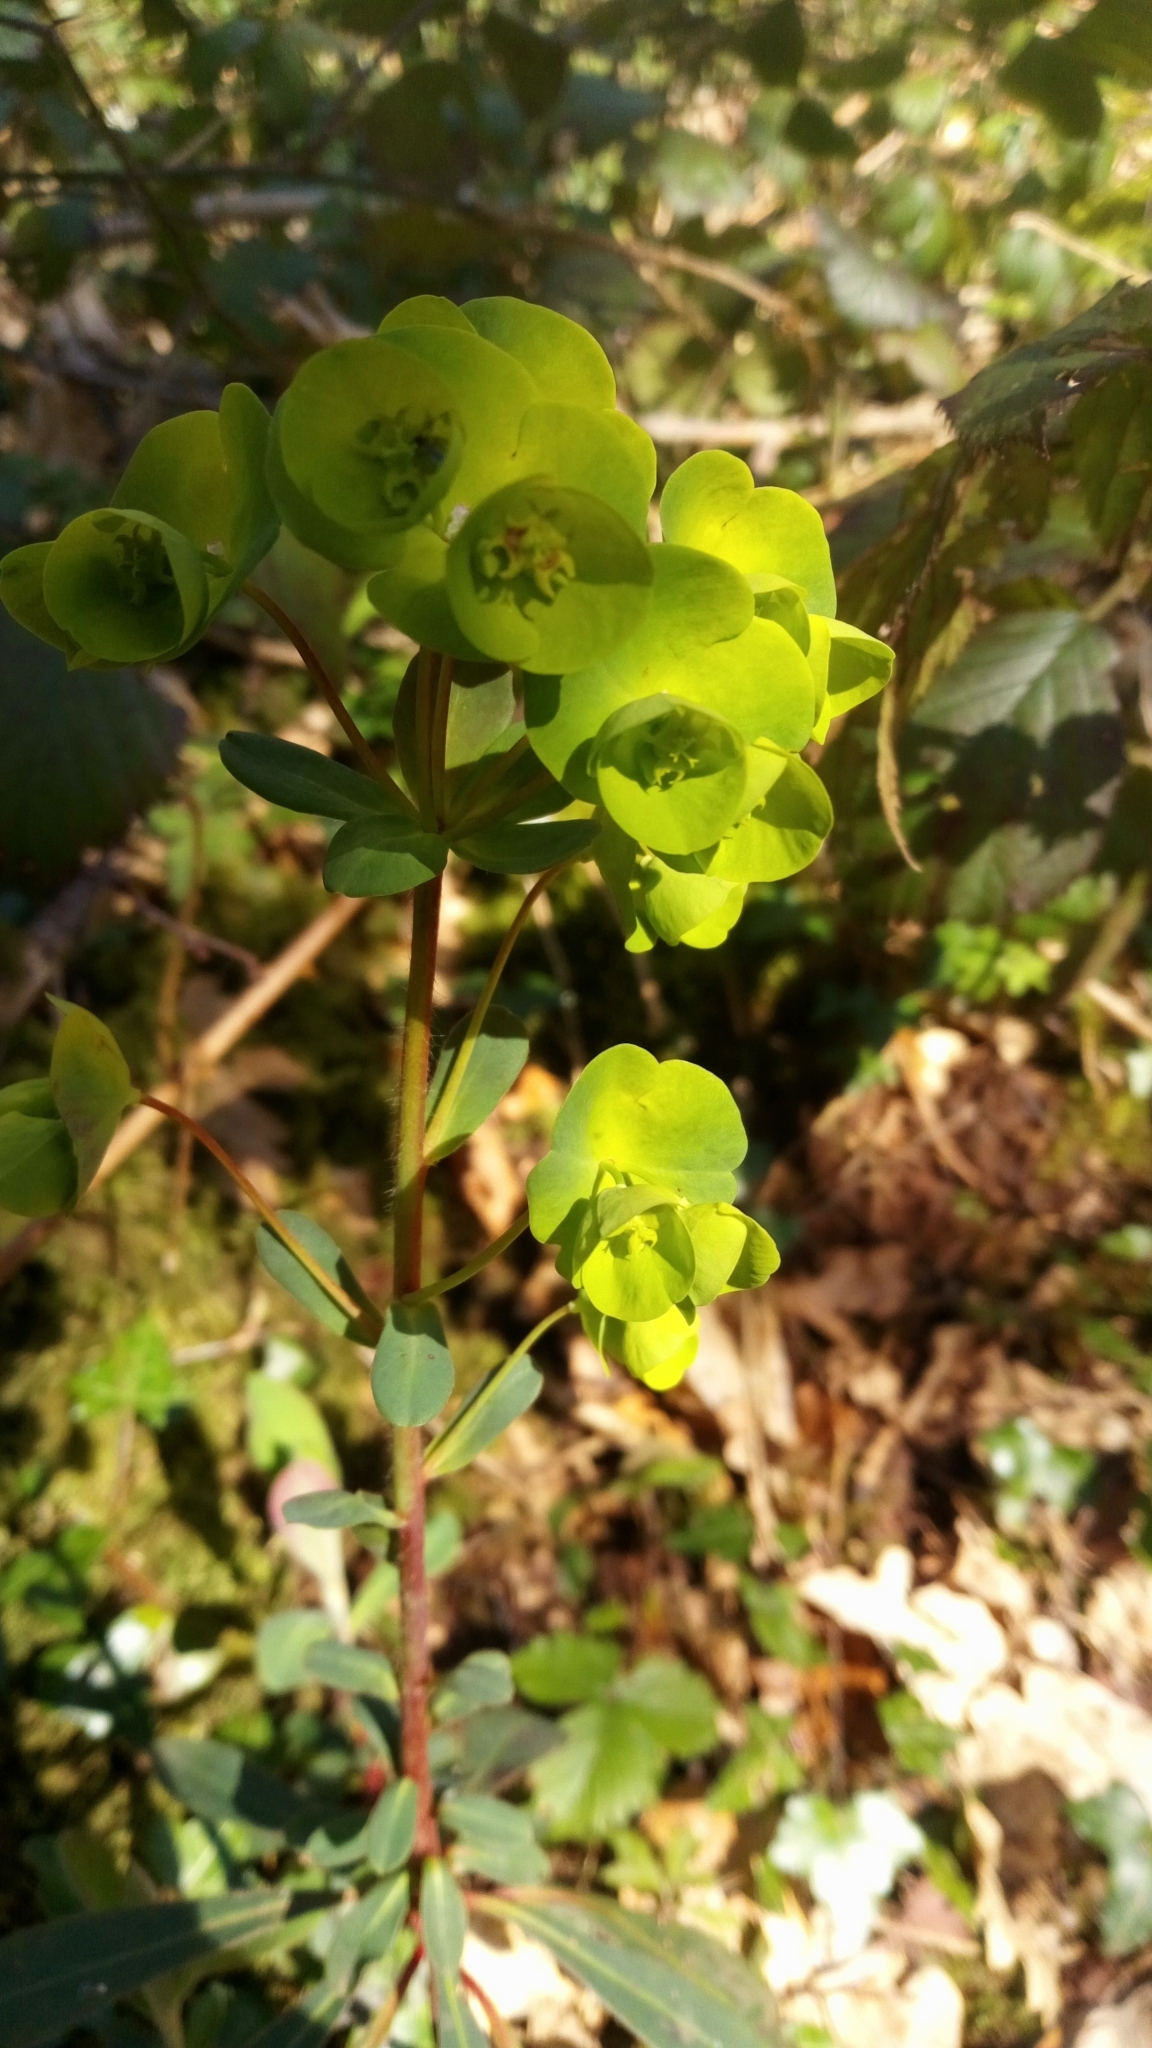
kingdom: Plantae
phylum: Tracheophyta
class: Magnoliopsida
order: Malpighiales
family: Euphorbiaceae
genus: Euphorbia
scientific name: Euphorbia amygdaloides
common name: Wood spurge
